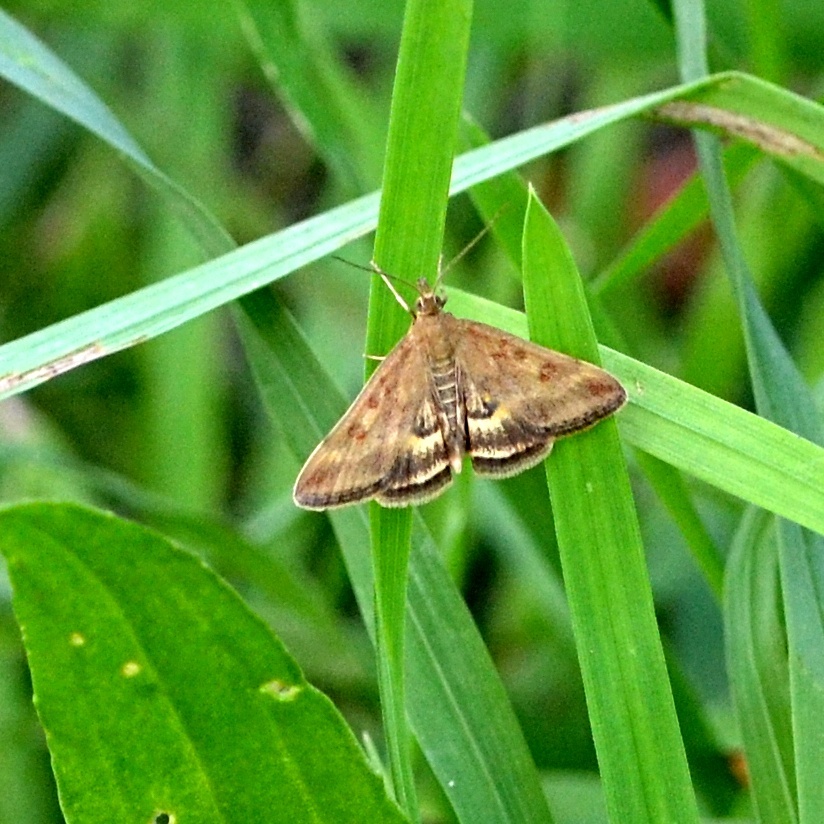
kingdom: Animalia
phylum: Arthropoda
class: Insecta
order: Lepidoptera
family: Crambidae
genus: Pyrausta
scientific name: Pyrausta despicata
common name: Straw-barred pearl
